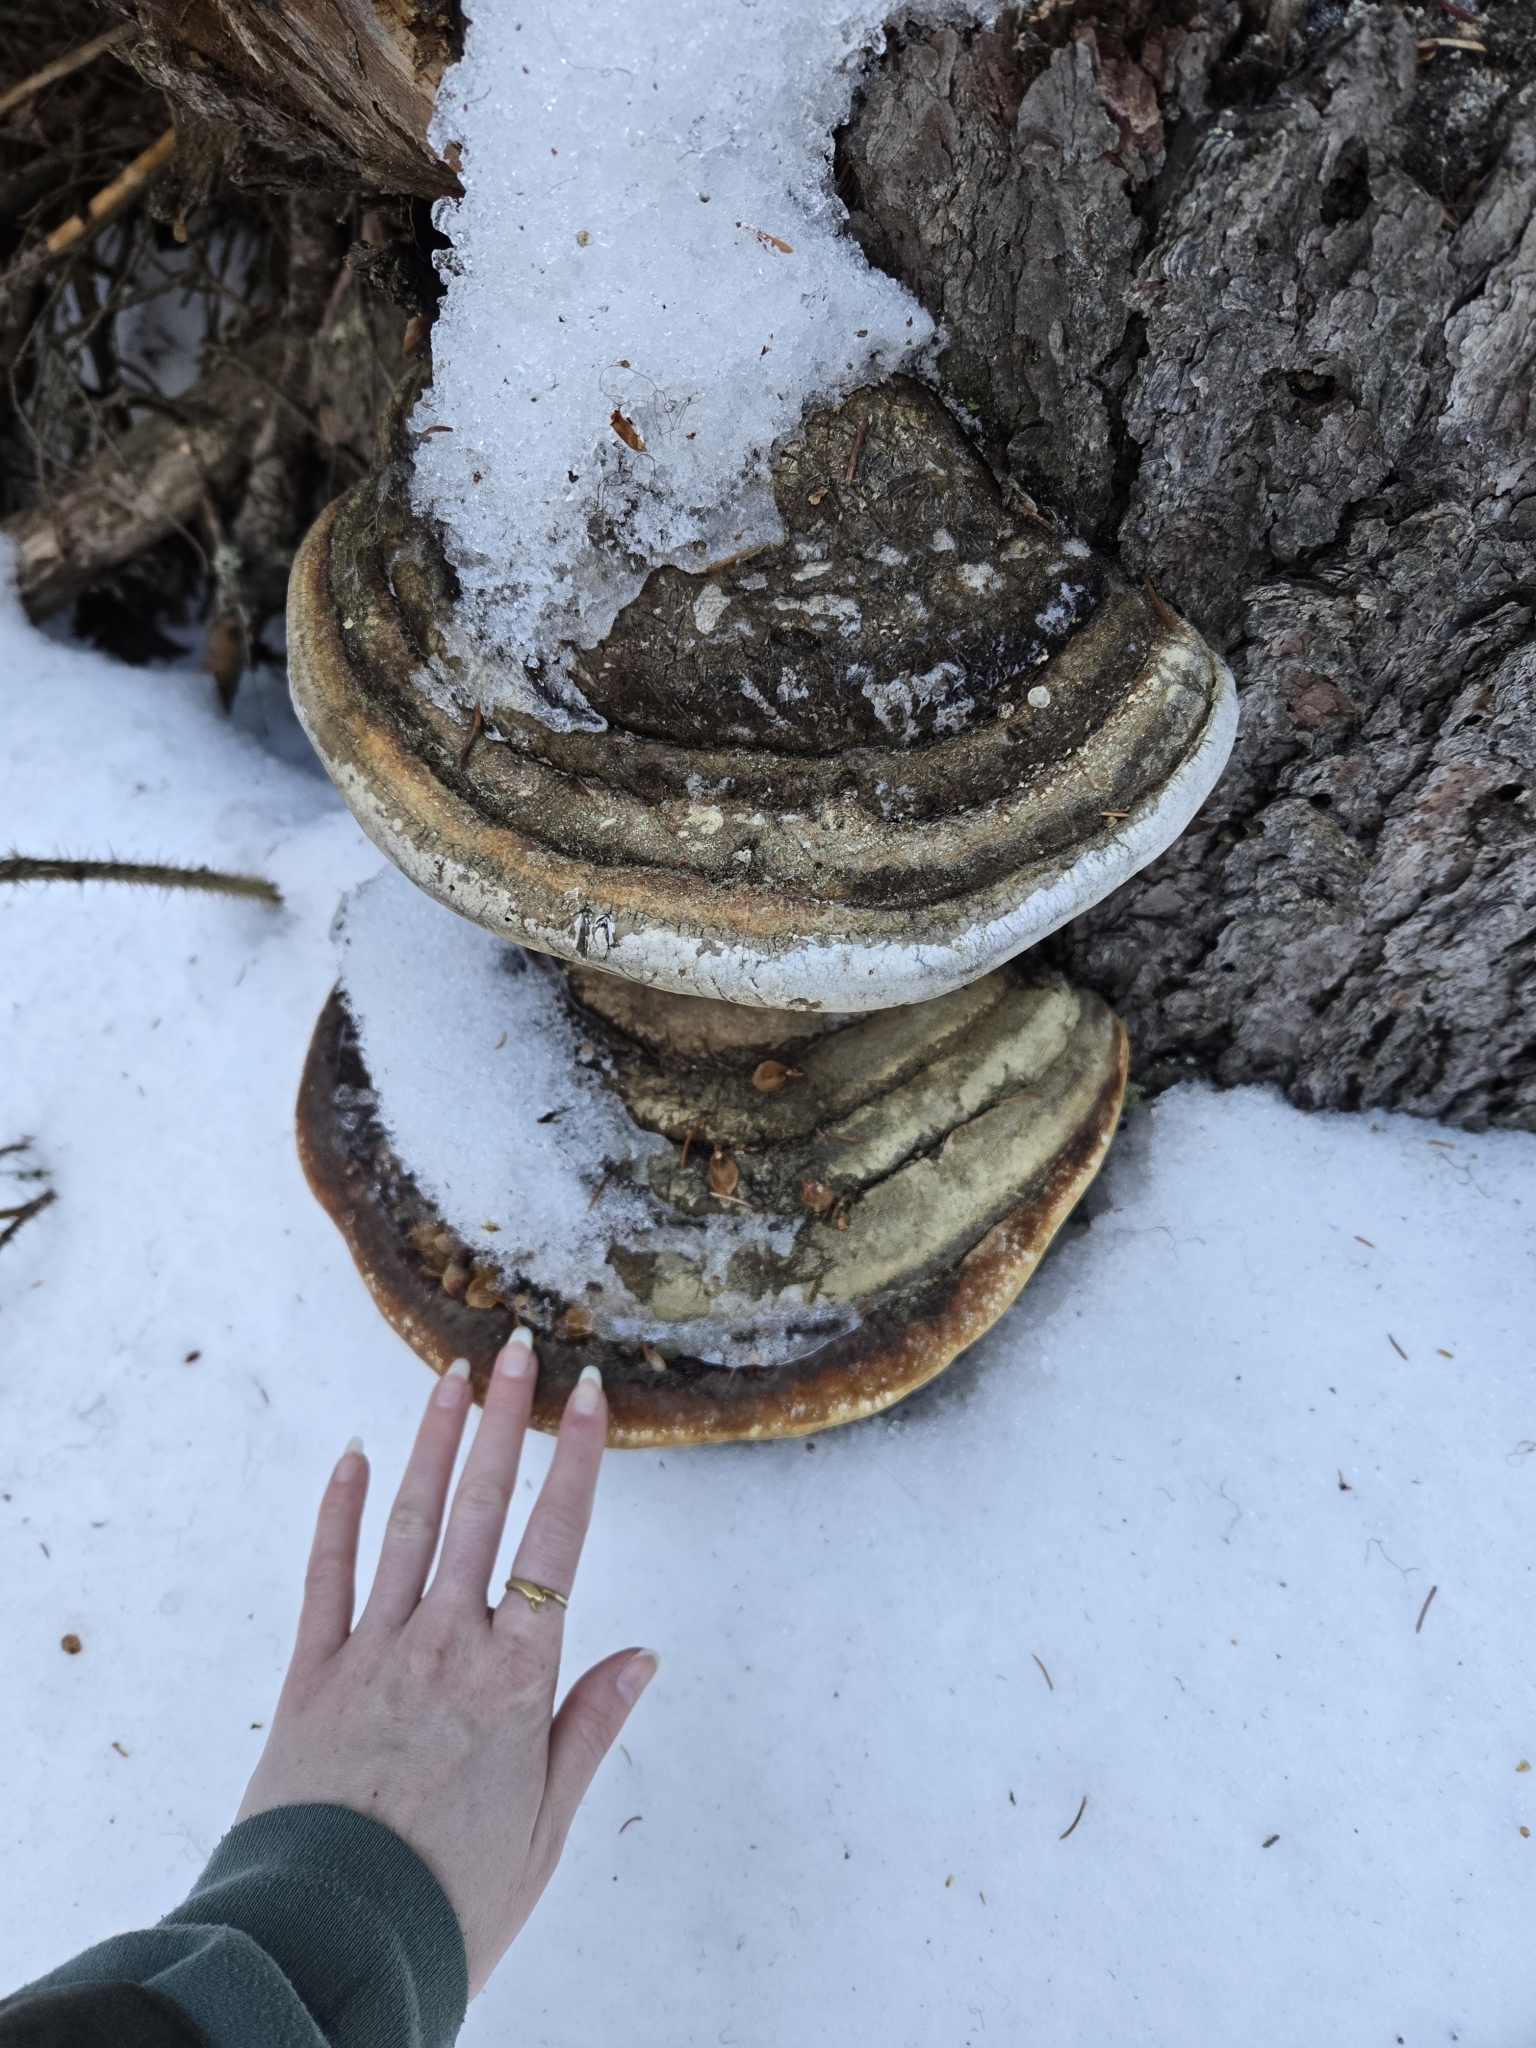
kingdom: Fungi
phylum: Basidiomycota
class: Agaricomycetes
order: Polyporales
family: Fomitopsidaceae
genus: Fomitopsis
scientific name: Fomitopsis mounceae
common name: Northern red belt
